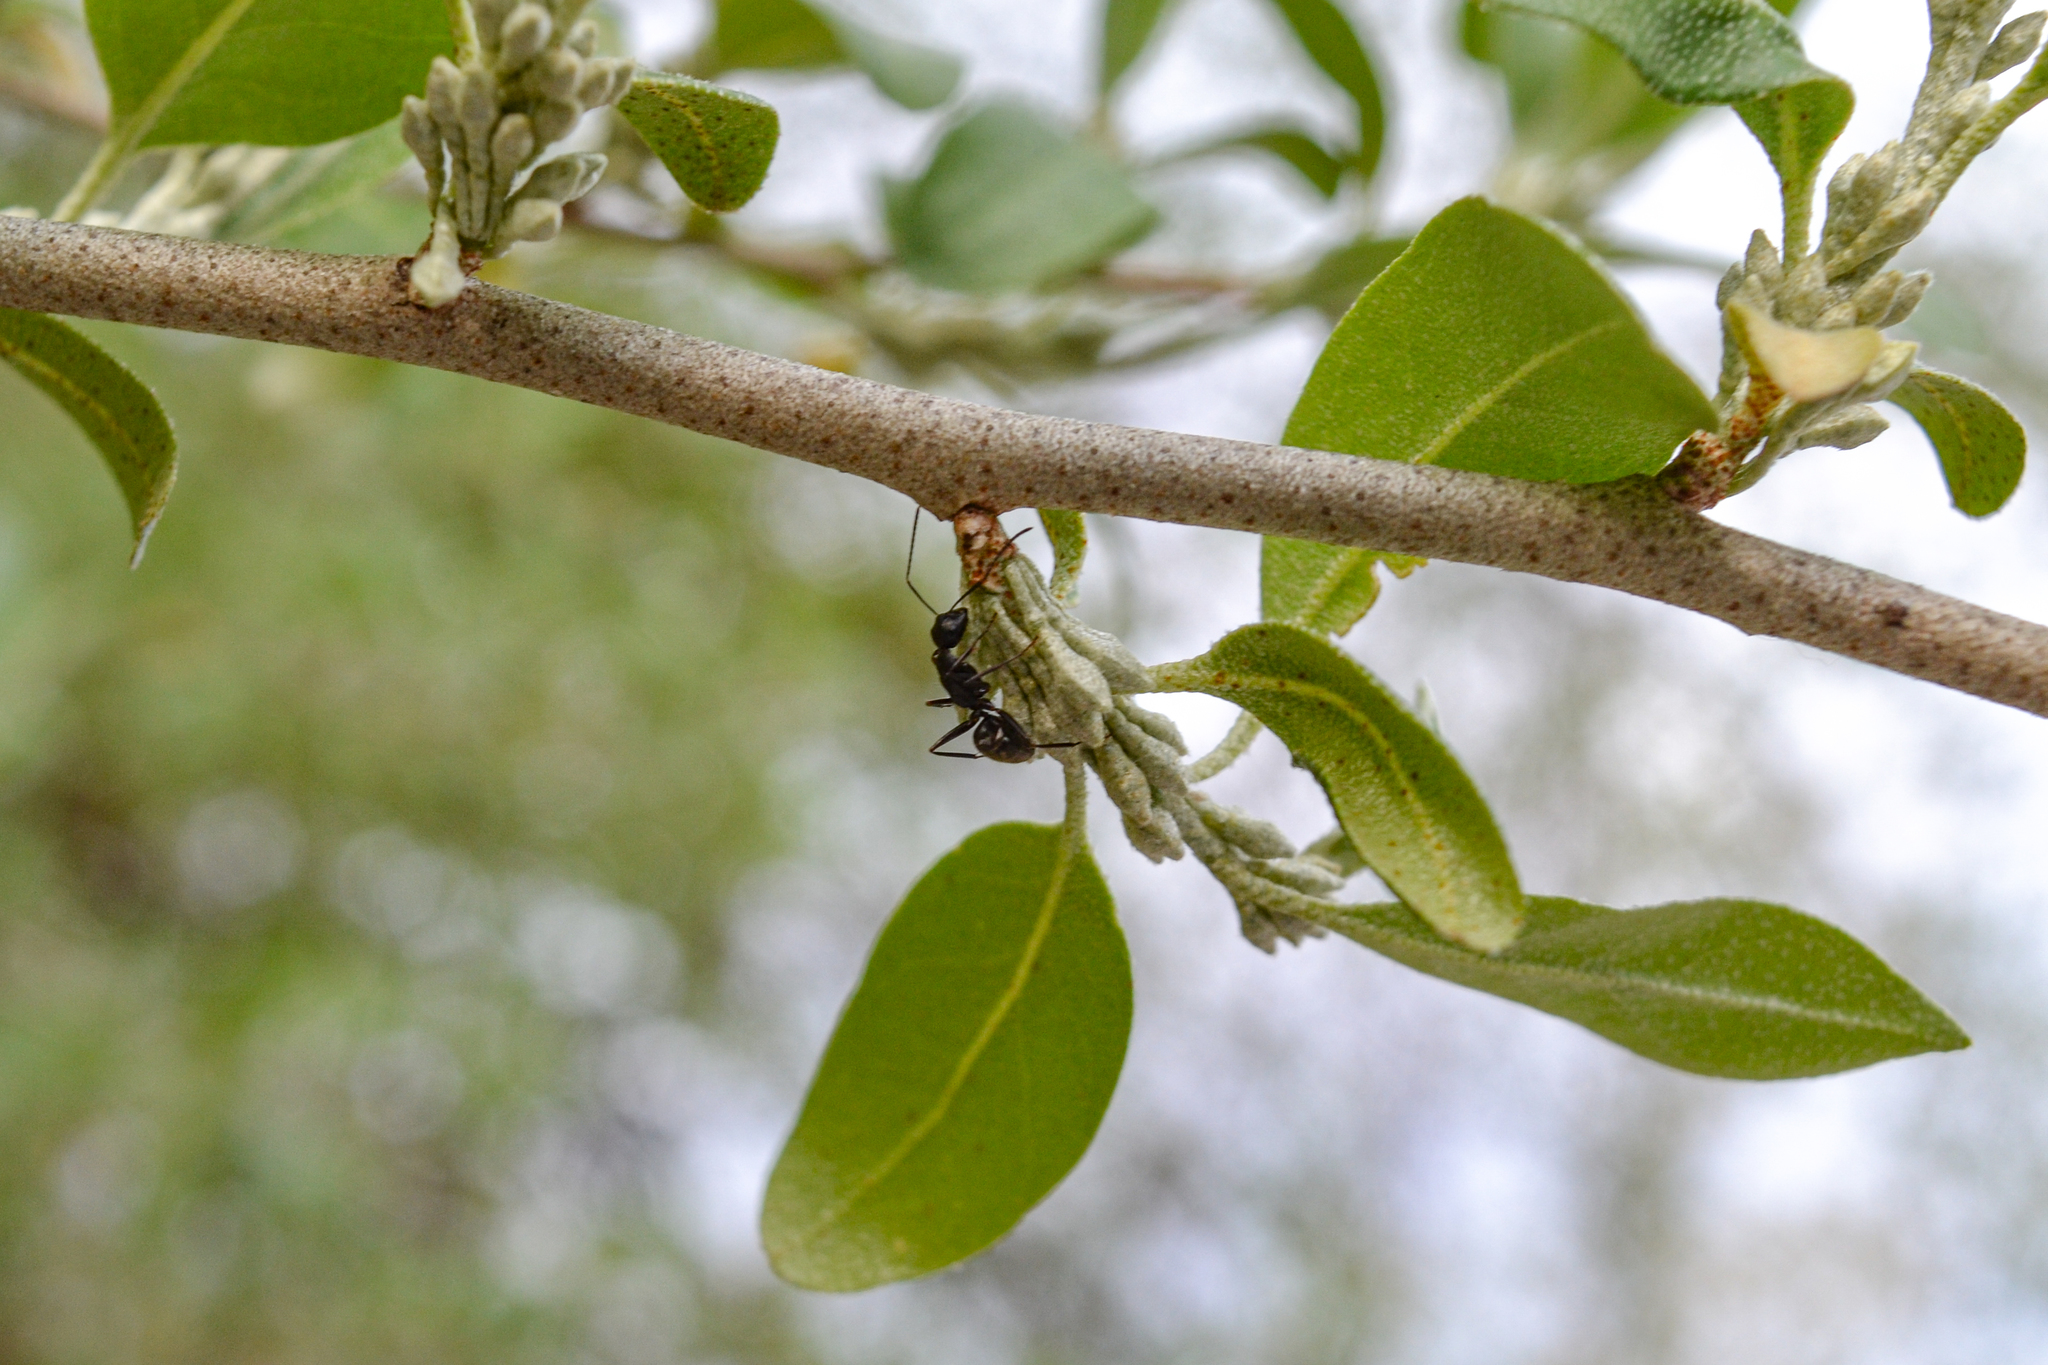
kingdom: Animalia
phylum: Arthropoda
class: Insecta
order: Hymenoptera
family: Formicidae
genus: Camponotus
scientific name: Camponotus pennsylvanicus
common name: Black carpenter ant
